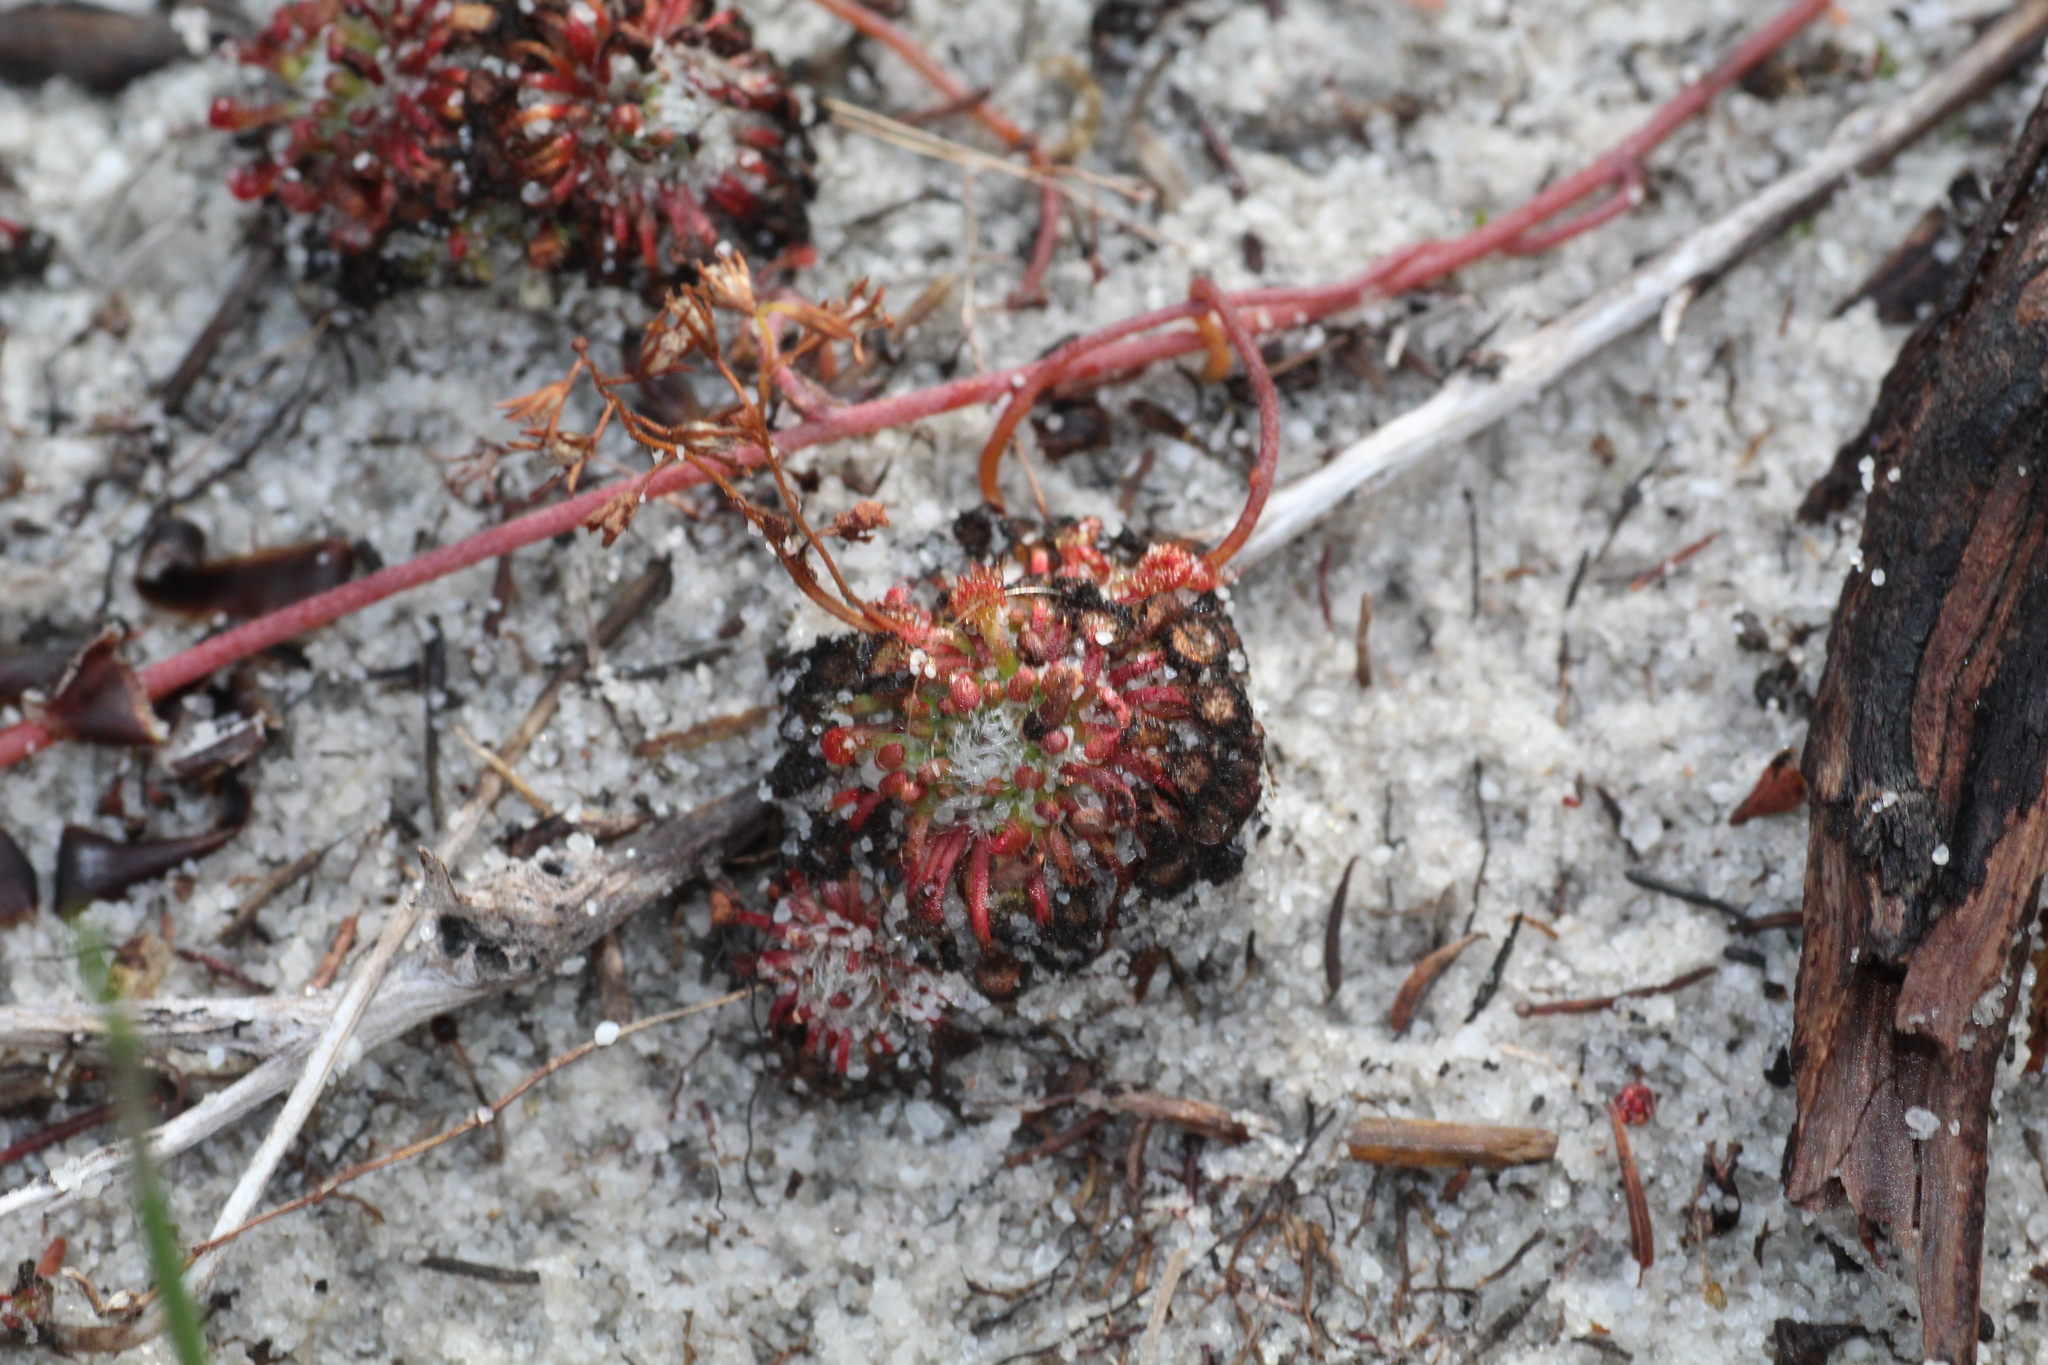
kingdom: Plantae
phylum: Tracheophyta
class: Magnoliopsida
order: Caryophyllales
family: Droseraceae
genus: Drosera
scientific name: Drosera patens
